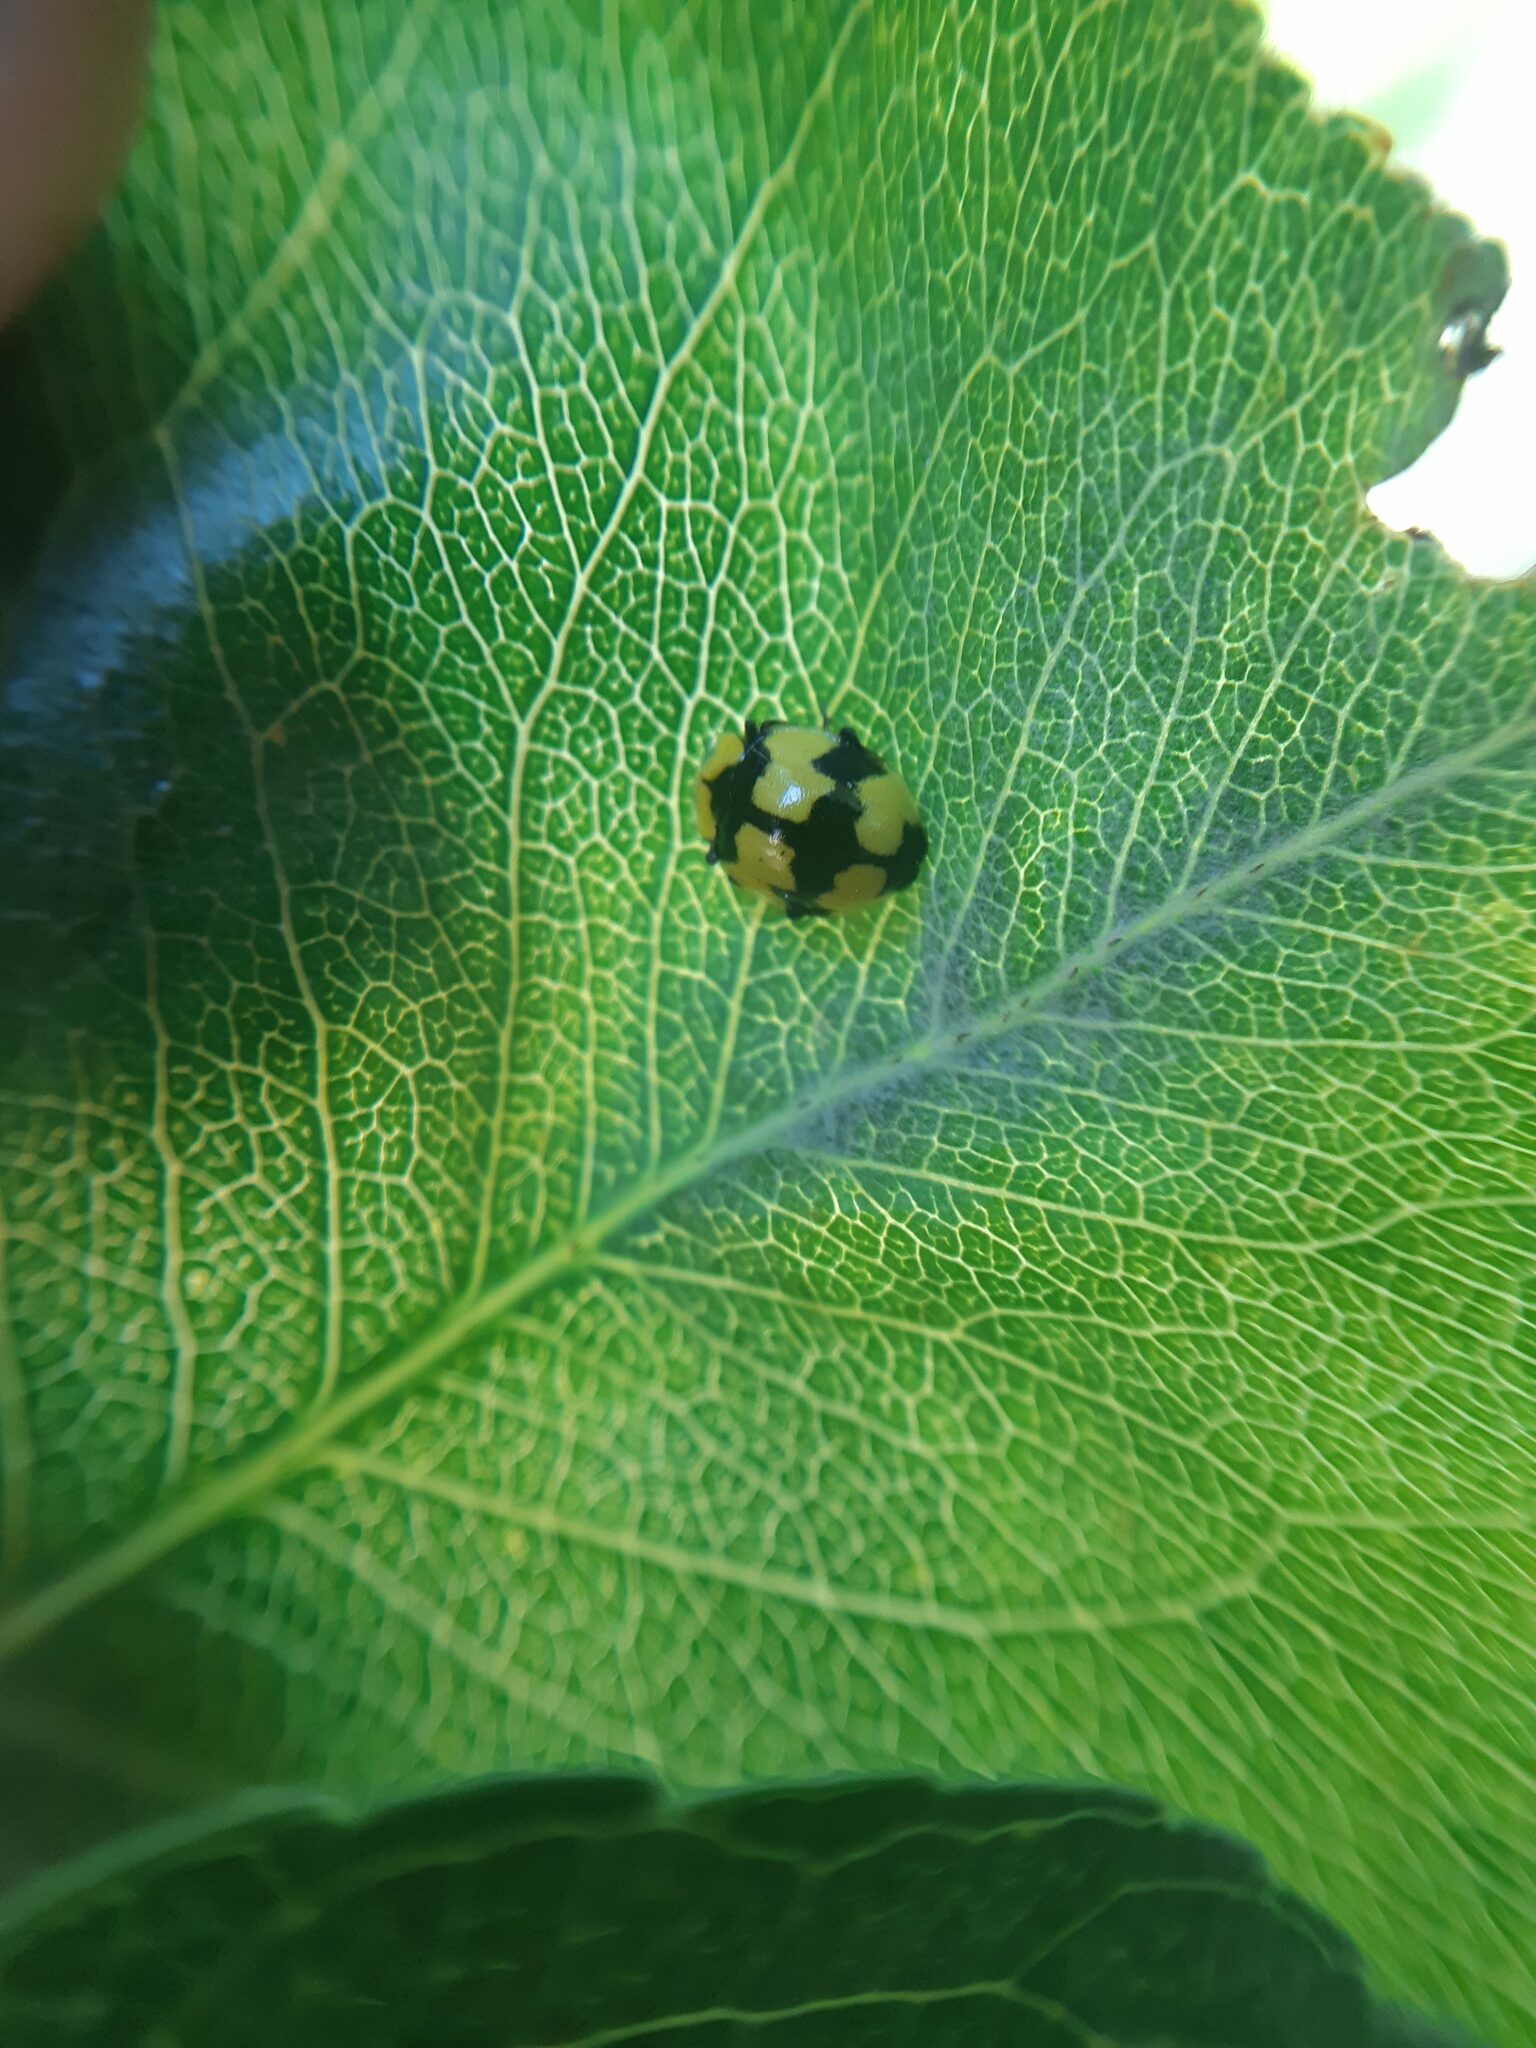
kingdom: Animalia
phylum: Arthropoda
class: Insecta
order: Coleoptera
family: Coccinellidae
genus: Illeis
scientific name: Illeis galbula
